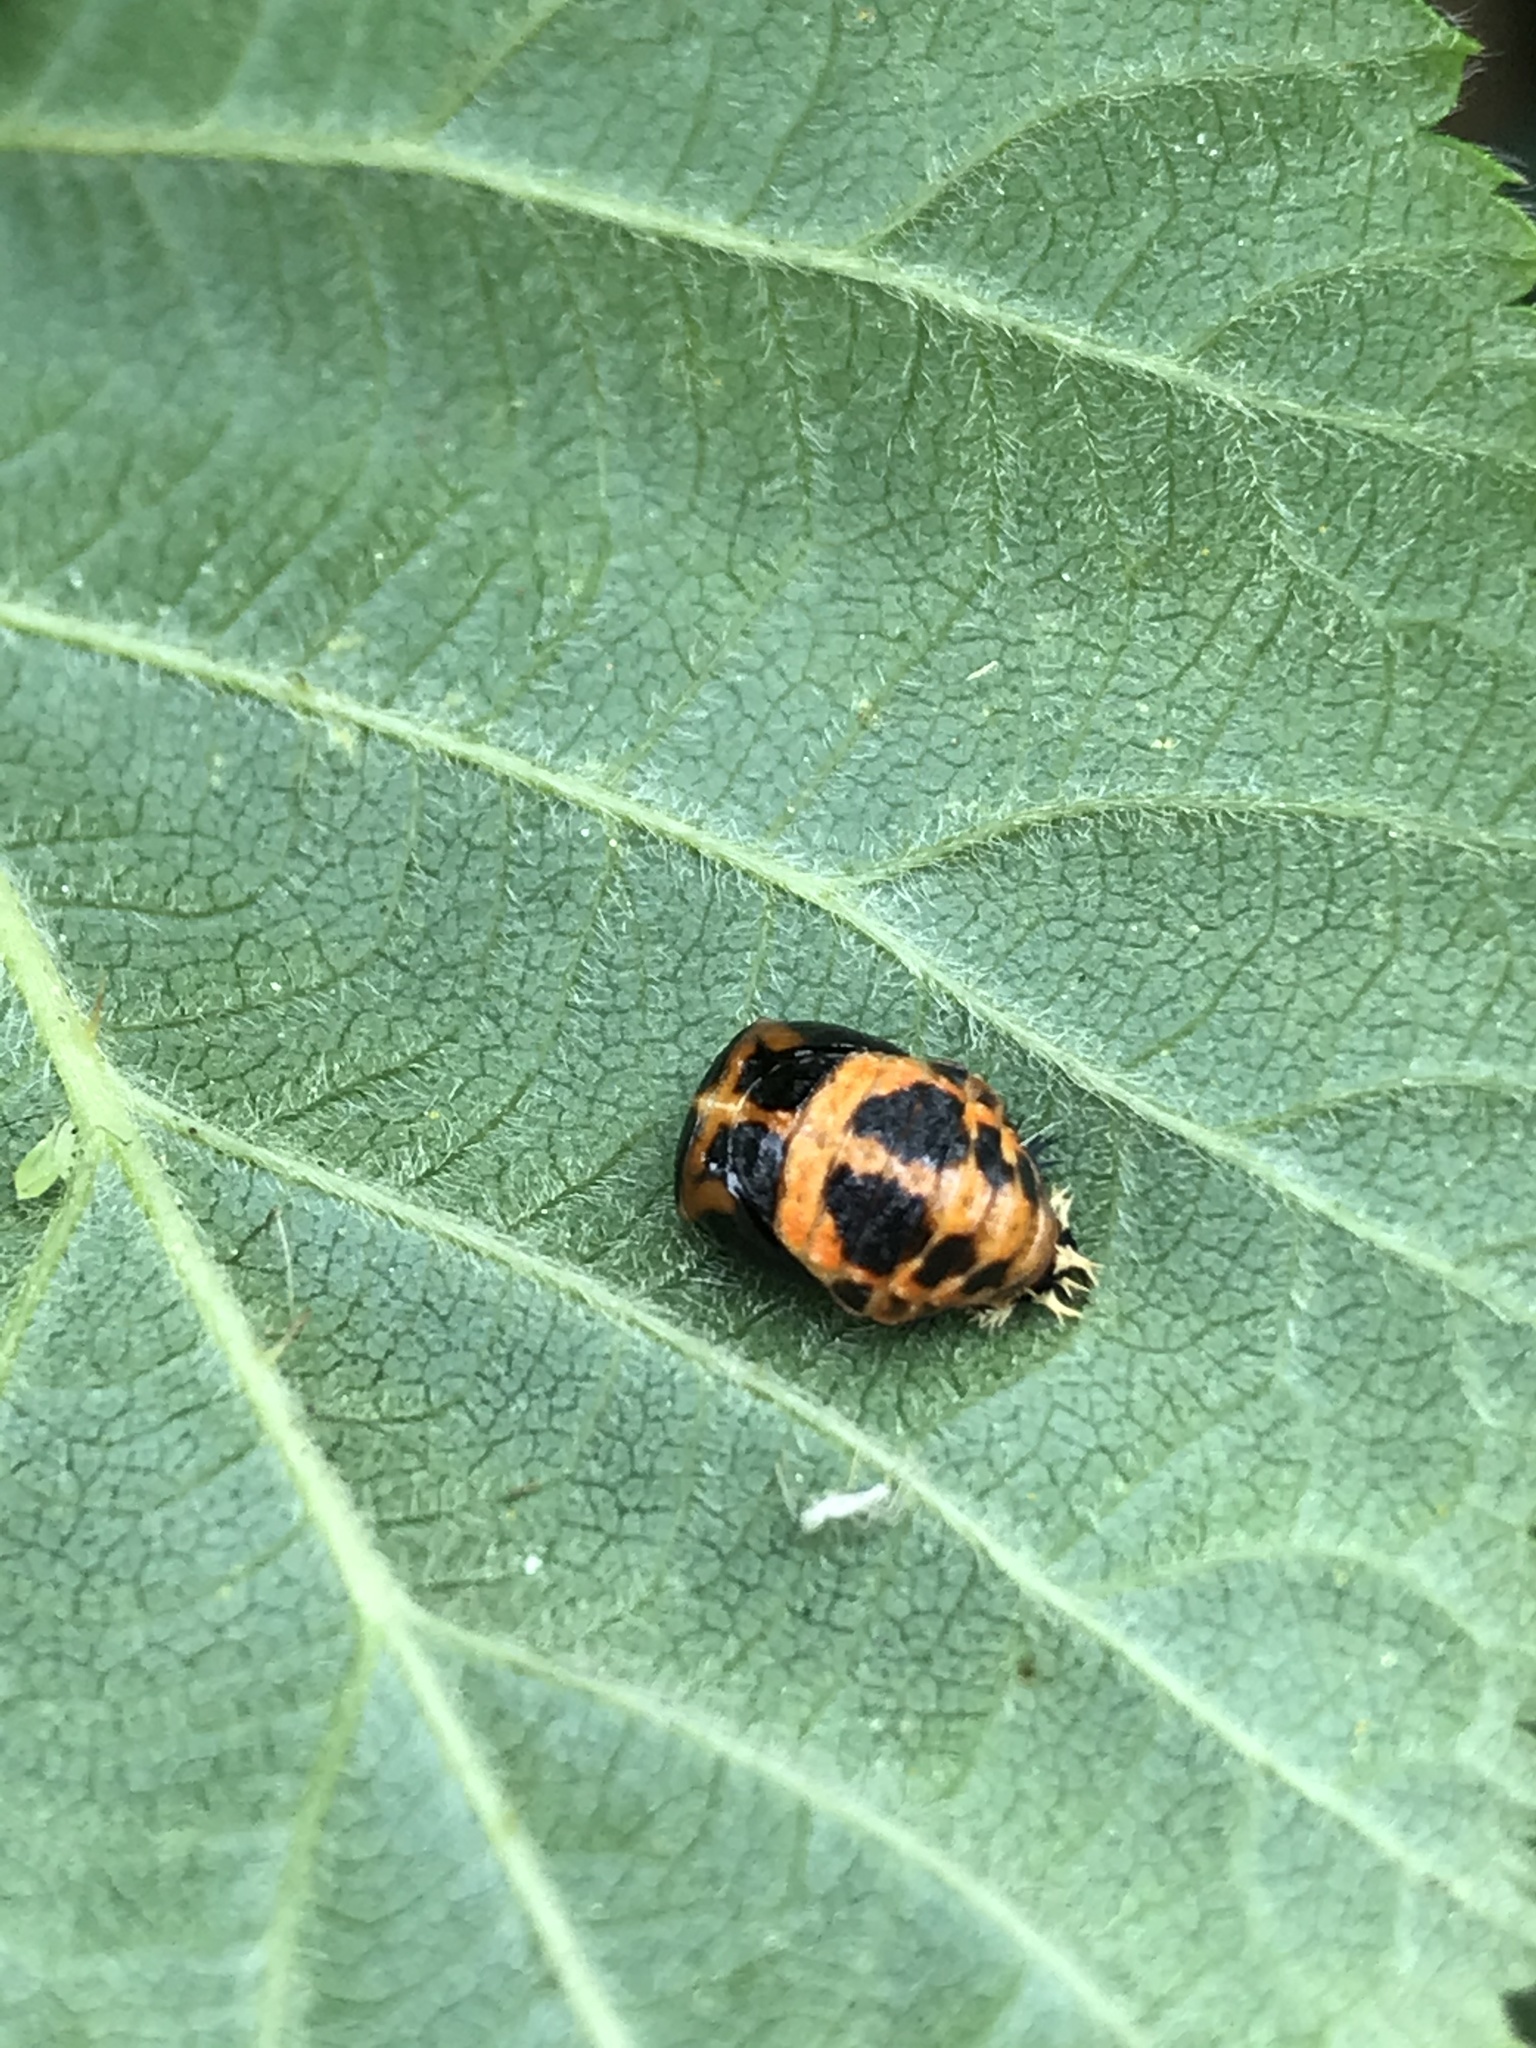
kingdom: Animalia
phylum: Arthropoda
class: Insecta
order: Coleoptera
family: Coccinellidae
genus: Harmonia
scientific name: Harmonia axyridis
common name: Harlequin ladybird
